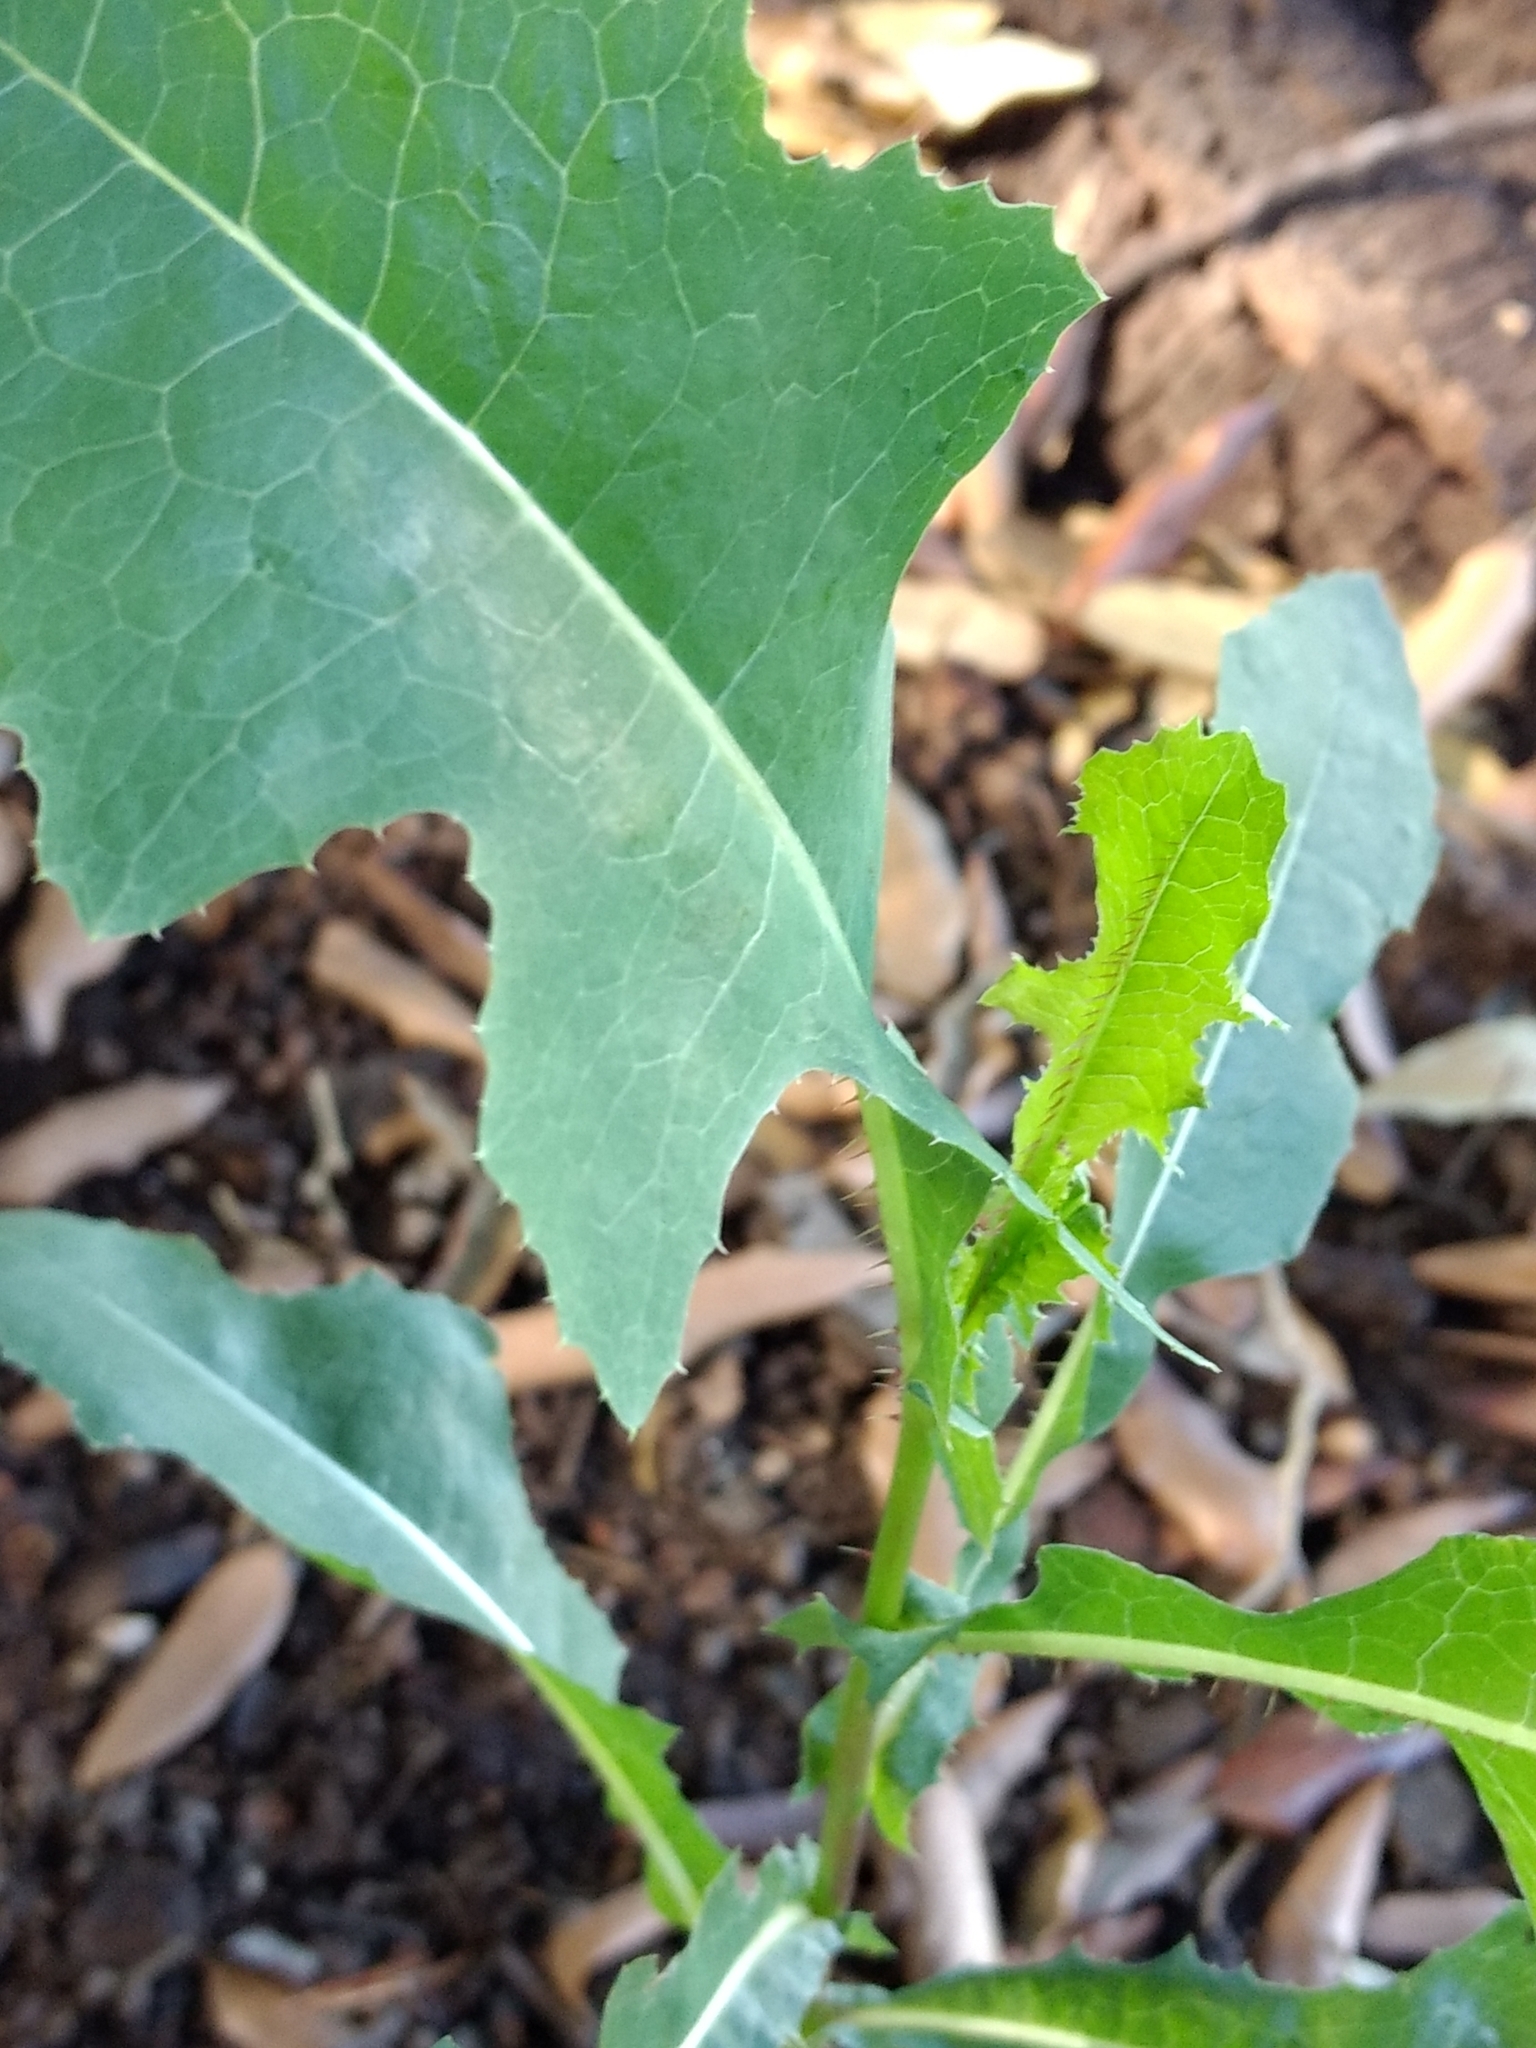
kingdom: Plantae
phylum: Tracheophyta
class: Magnoliopsida
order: Asterales
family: Asteraceae
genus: Lactuca
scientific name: Lactuca serriola
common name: Prickly lettuce
